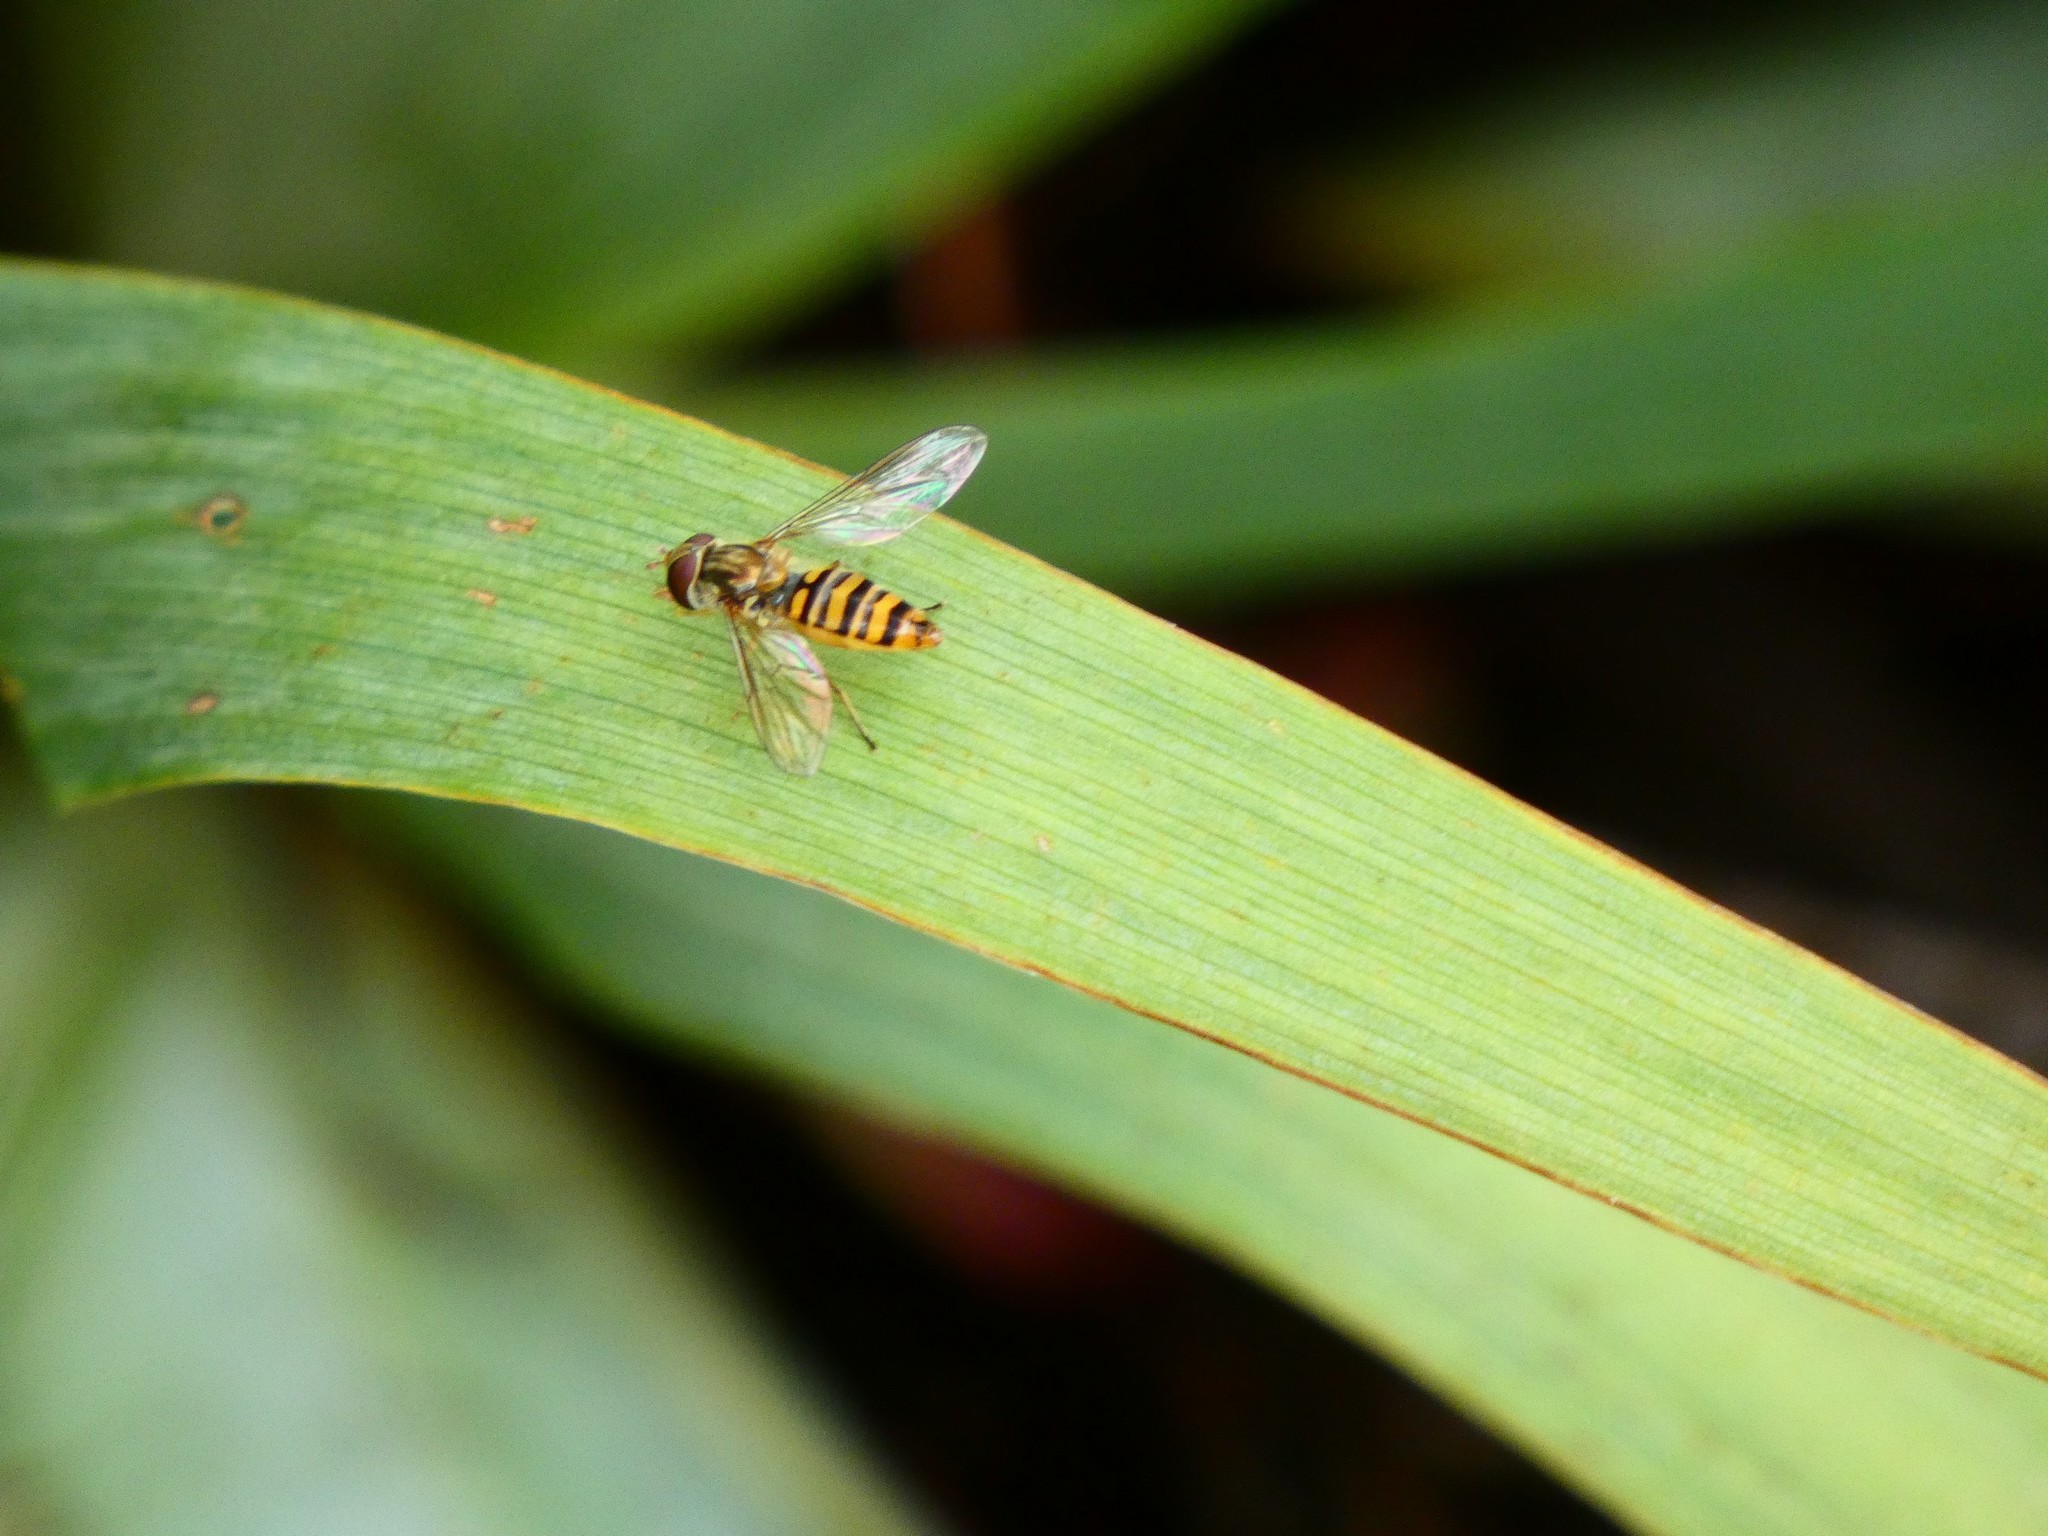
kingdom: Animalia
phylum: Arthropoda
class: Insecta
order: Diptera
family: Syrphidae
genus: Episyrphus
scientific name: Episyrphus balteatus
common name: Marmalade hoverfly
